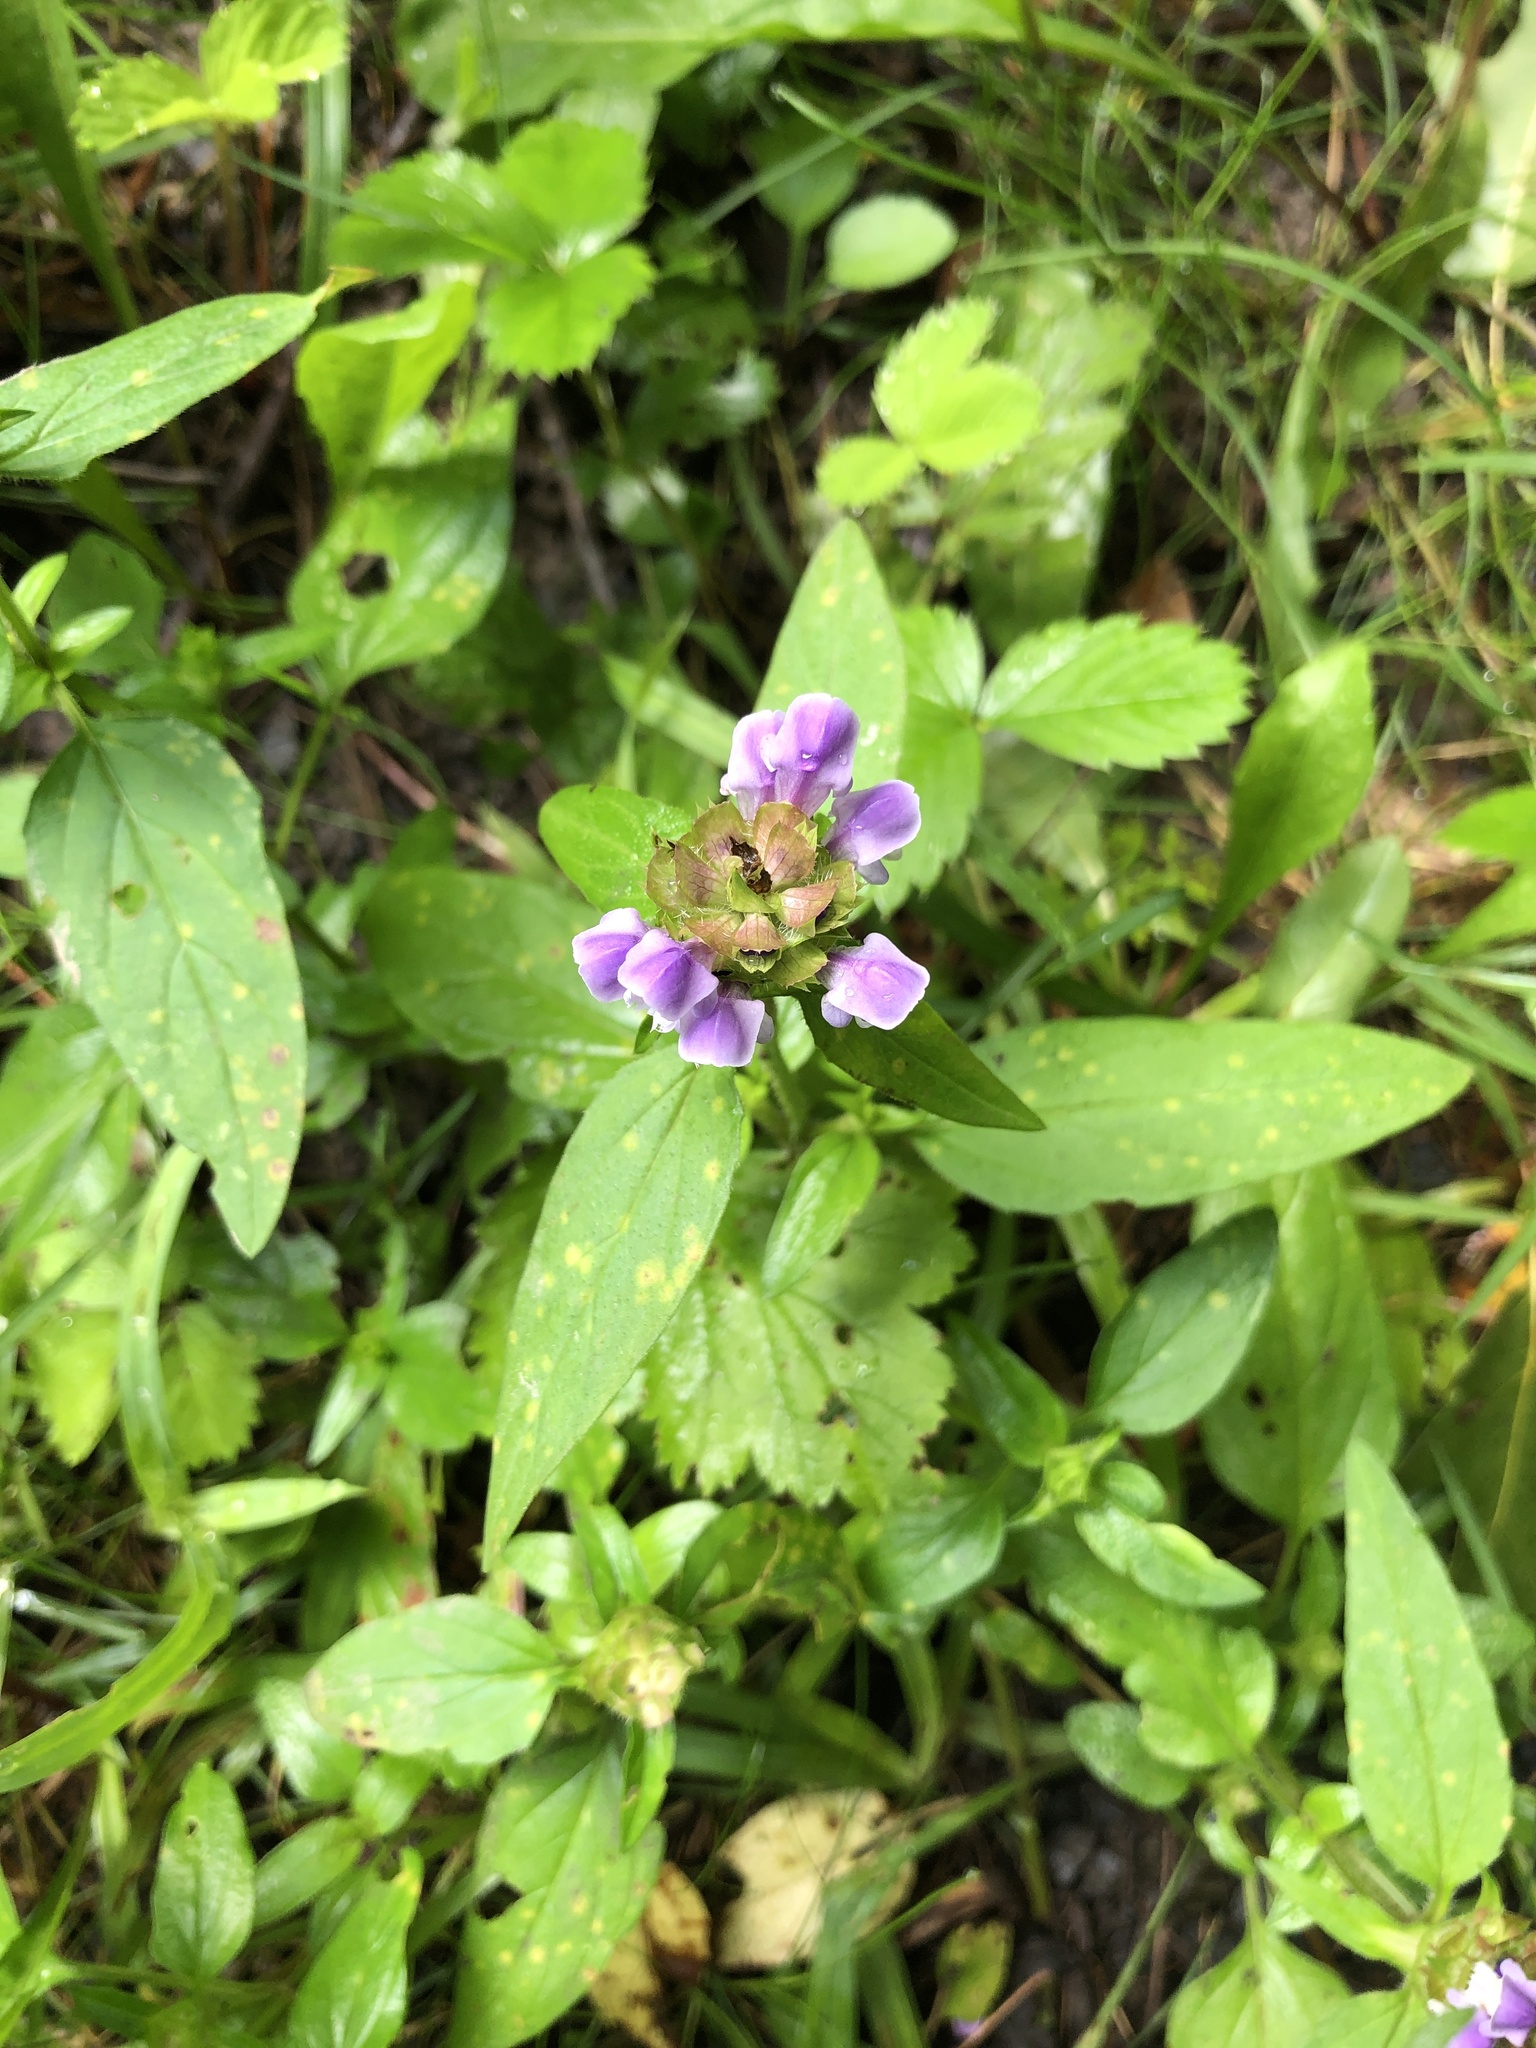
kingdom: Plantae
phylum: Tracheophyta
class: Magnoliopsida
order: Lamiales
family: Lamiaceae
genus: Prunella
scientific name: Prunella vulgaris
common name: Heal-all
